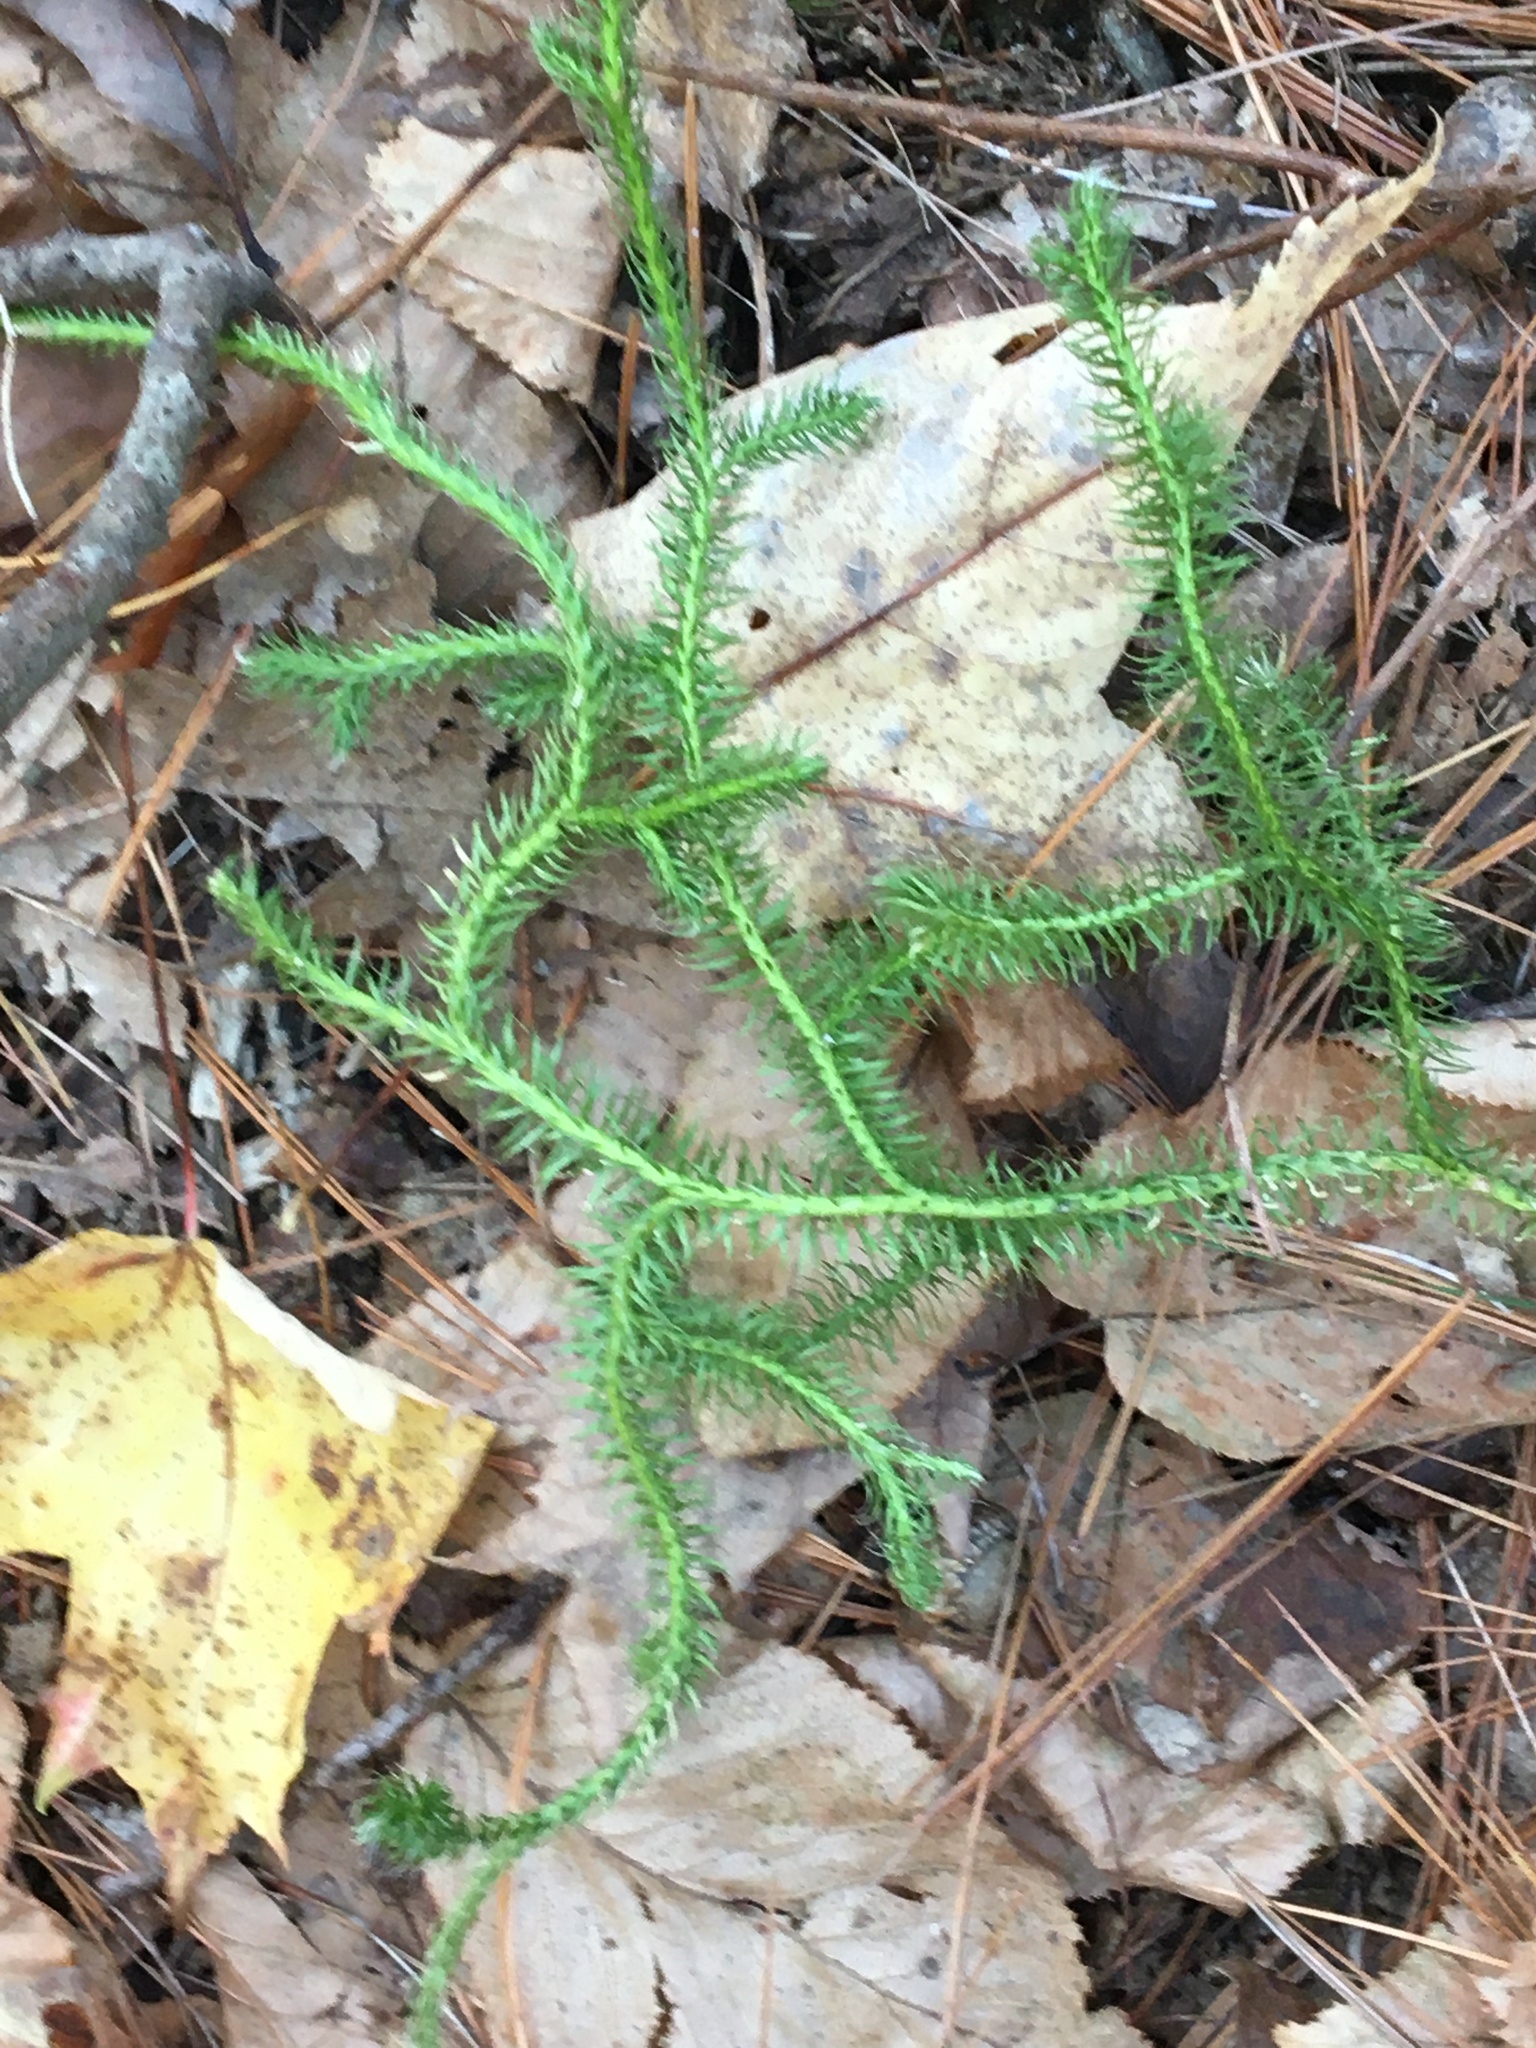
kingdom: Plantae
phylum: Tracheophyta
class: Lycopodiopsida
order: Lycopodiales
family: Lycopodiaceae
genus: Lycopodium
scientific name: Lycopodium clavatum
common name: Stag's-horn clubmoss
